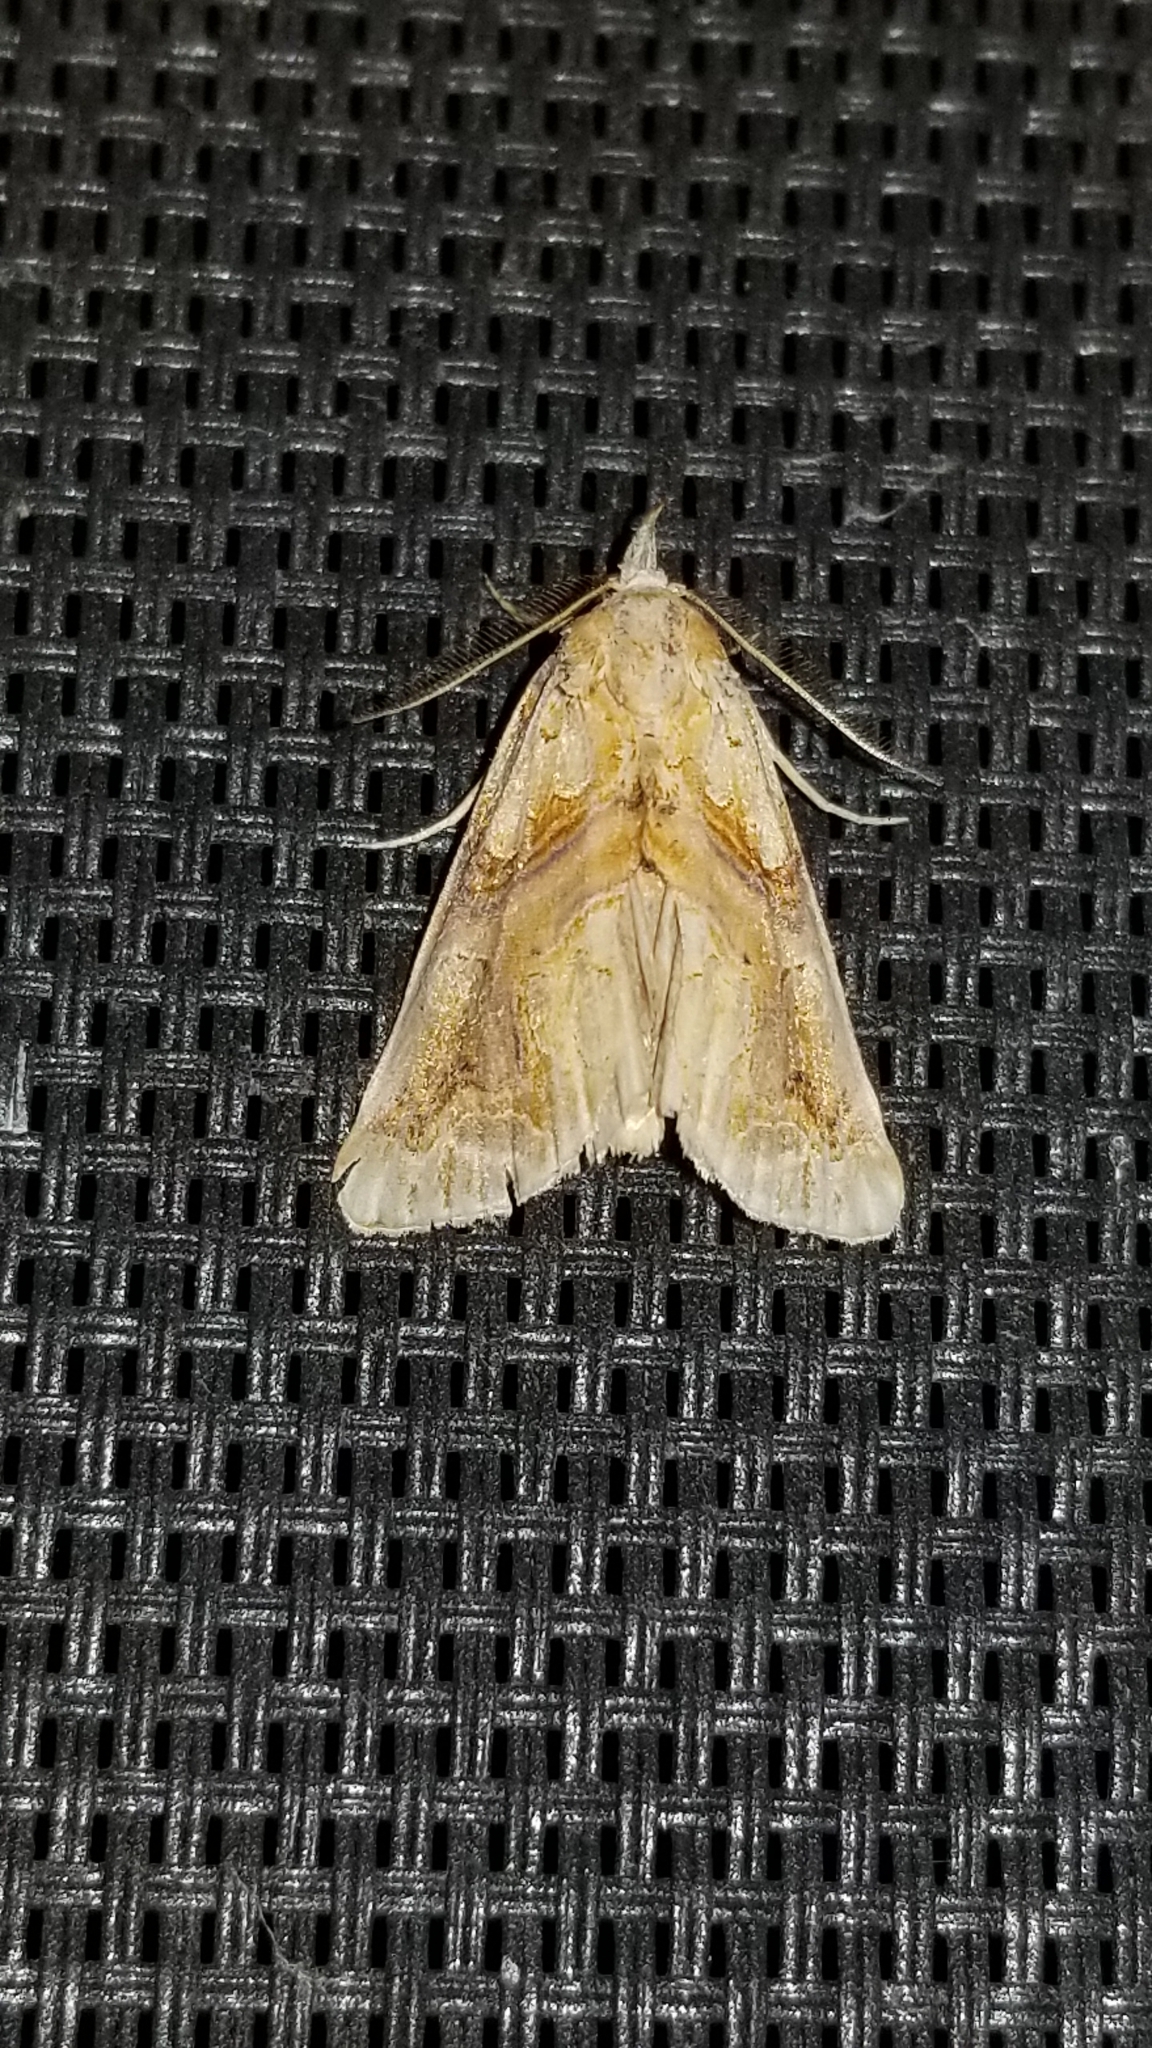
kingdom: Animalia
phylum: Arthropoda
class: Insecta
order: Lepidoptera
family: Erebidae
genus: Plusiodonta
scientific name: Plusiodonta compressipalpis
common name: Moonseed moth
